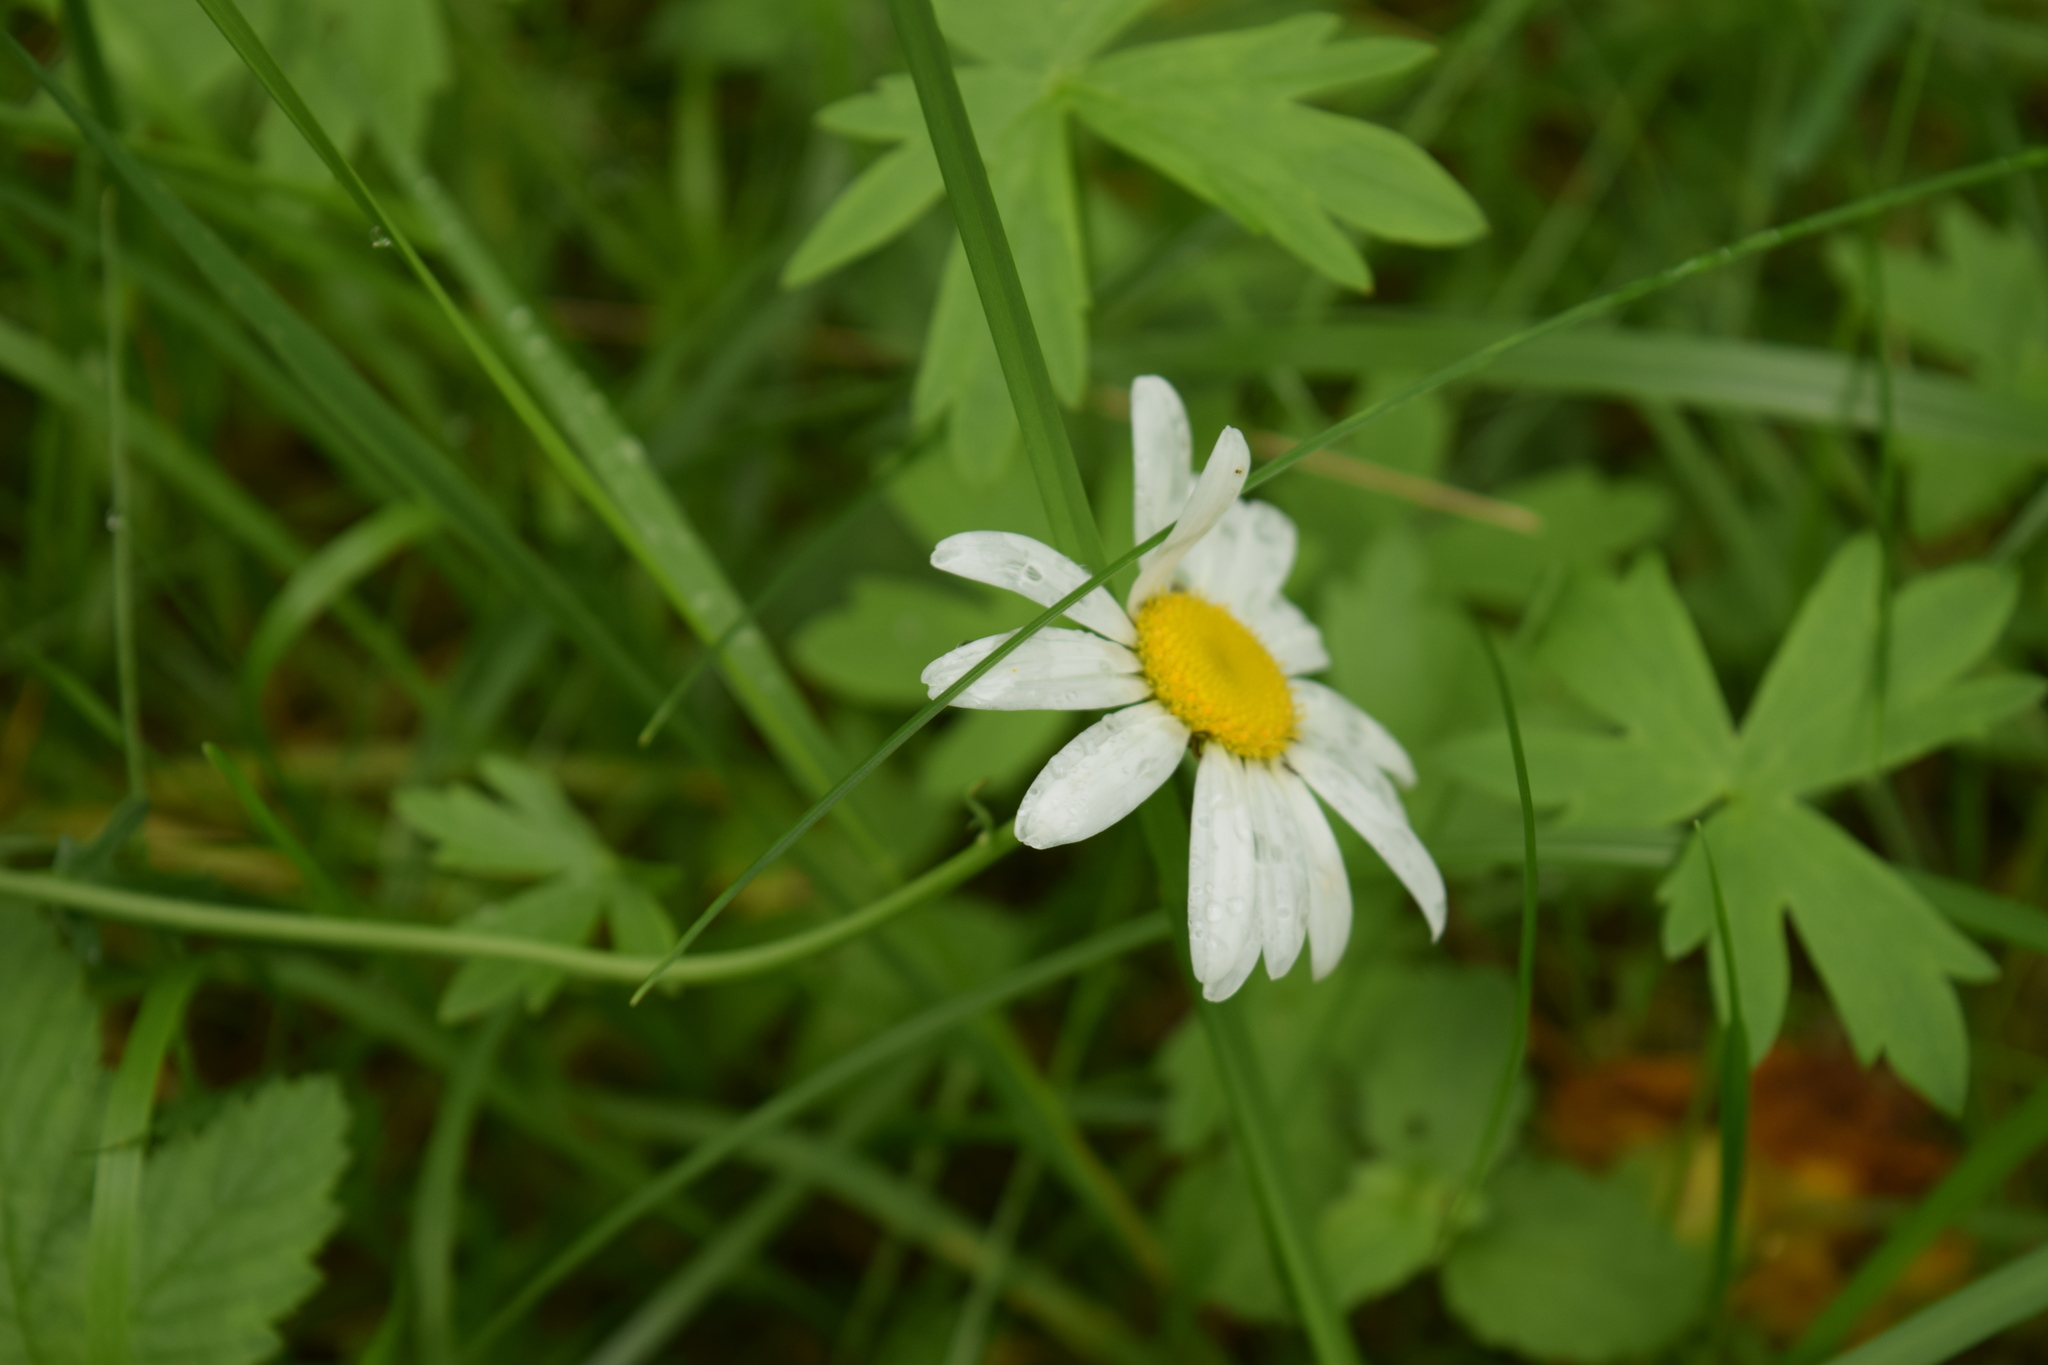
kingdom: Plantae
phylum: Tracheophyta
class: Magnoliopsida
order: Asterales
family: Asteraceae
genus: Leucanthemum
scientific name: Leucanthemum vulgare
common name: Oxeye daisy
